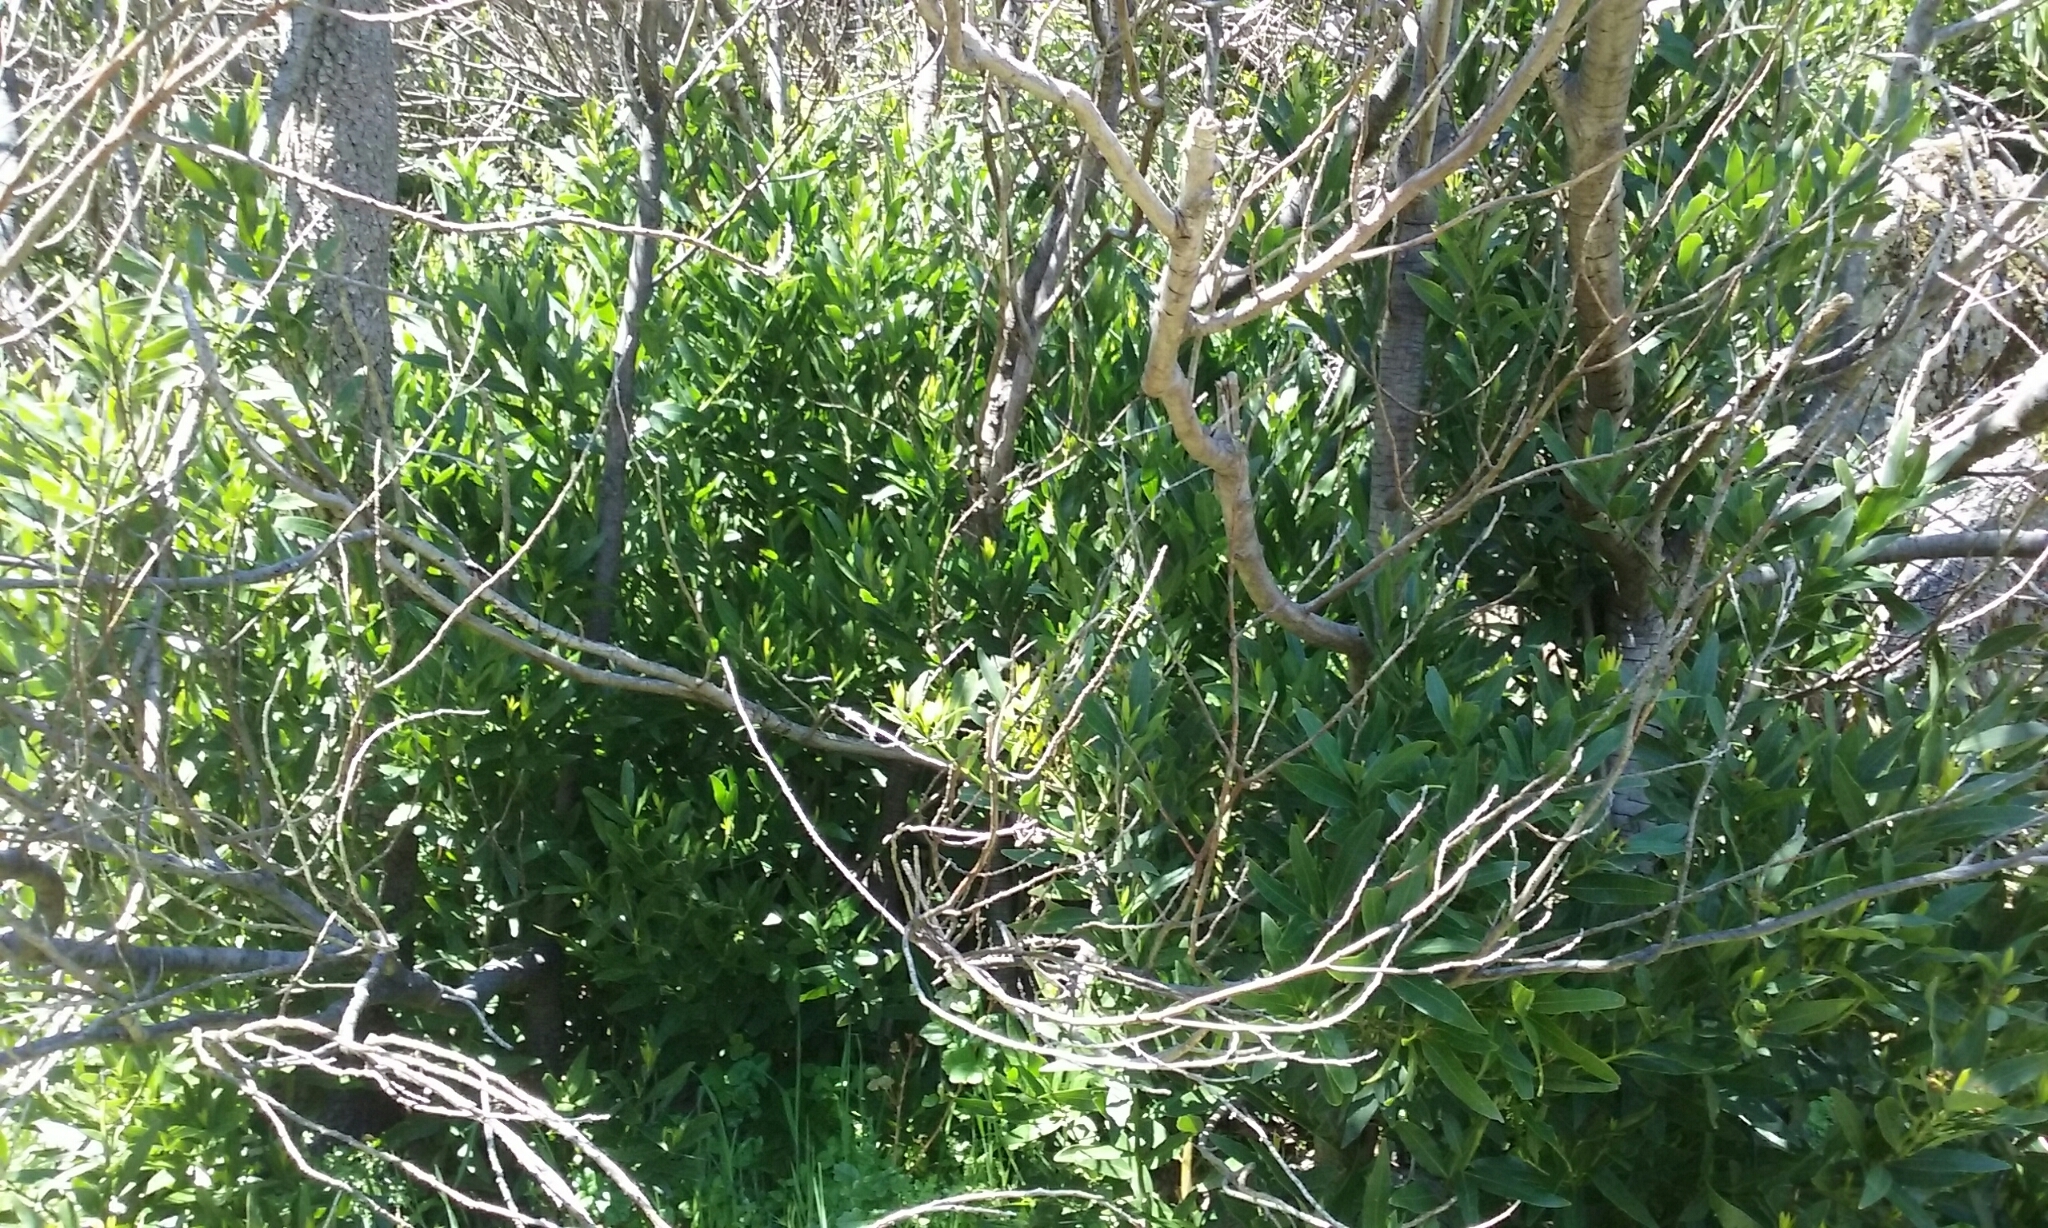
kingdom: Plantae
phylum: Tracheophyta
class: Magnoliopsida
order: Laurales
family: Lauraceae
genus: Umbellularia
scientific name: Umbellularia californica
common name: California bay
